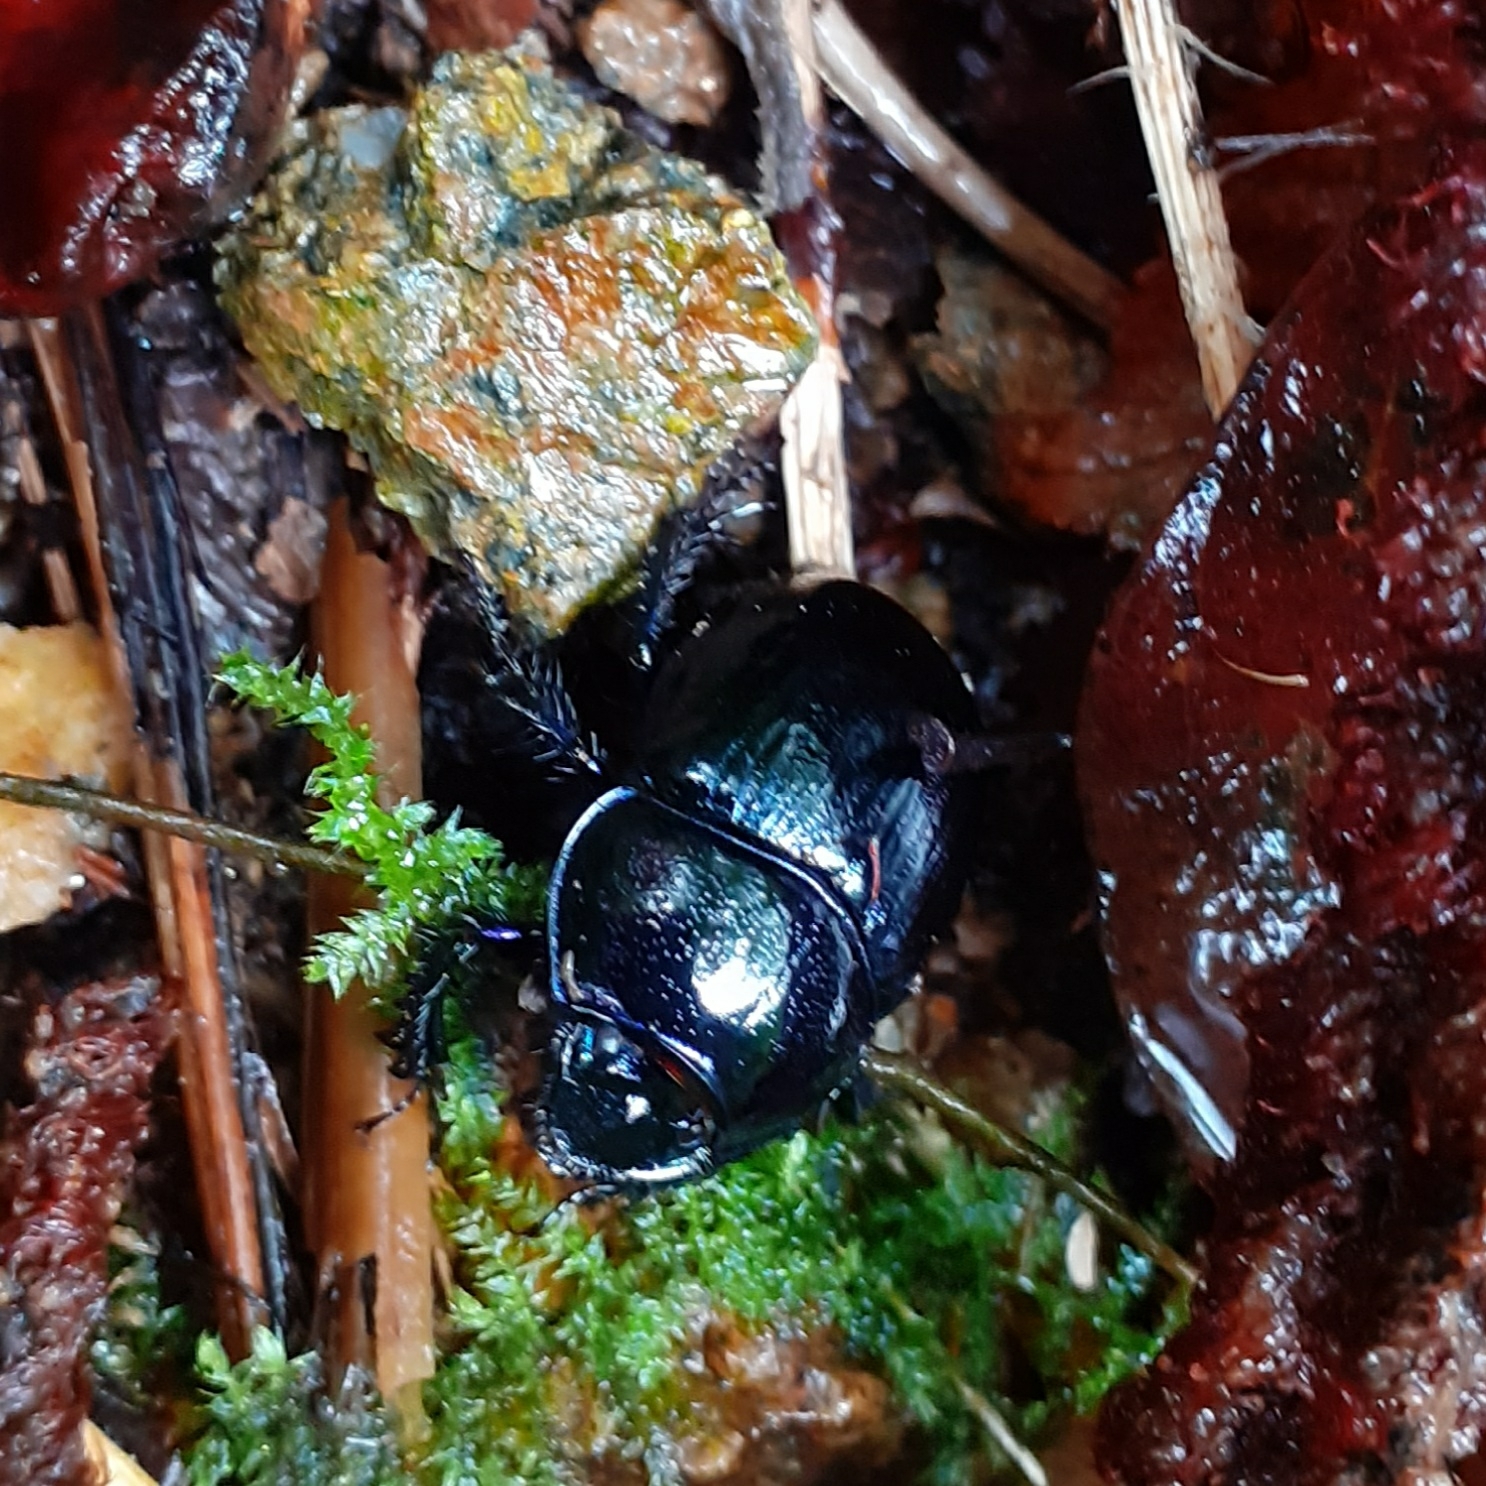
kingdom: Animalia
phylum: Arthropoda
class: Insecta
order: Coleoptera
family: Geotrupidae
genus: Anoplotrupes
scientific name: Anoplotrupes stercorosus
